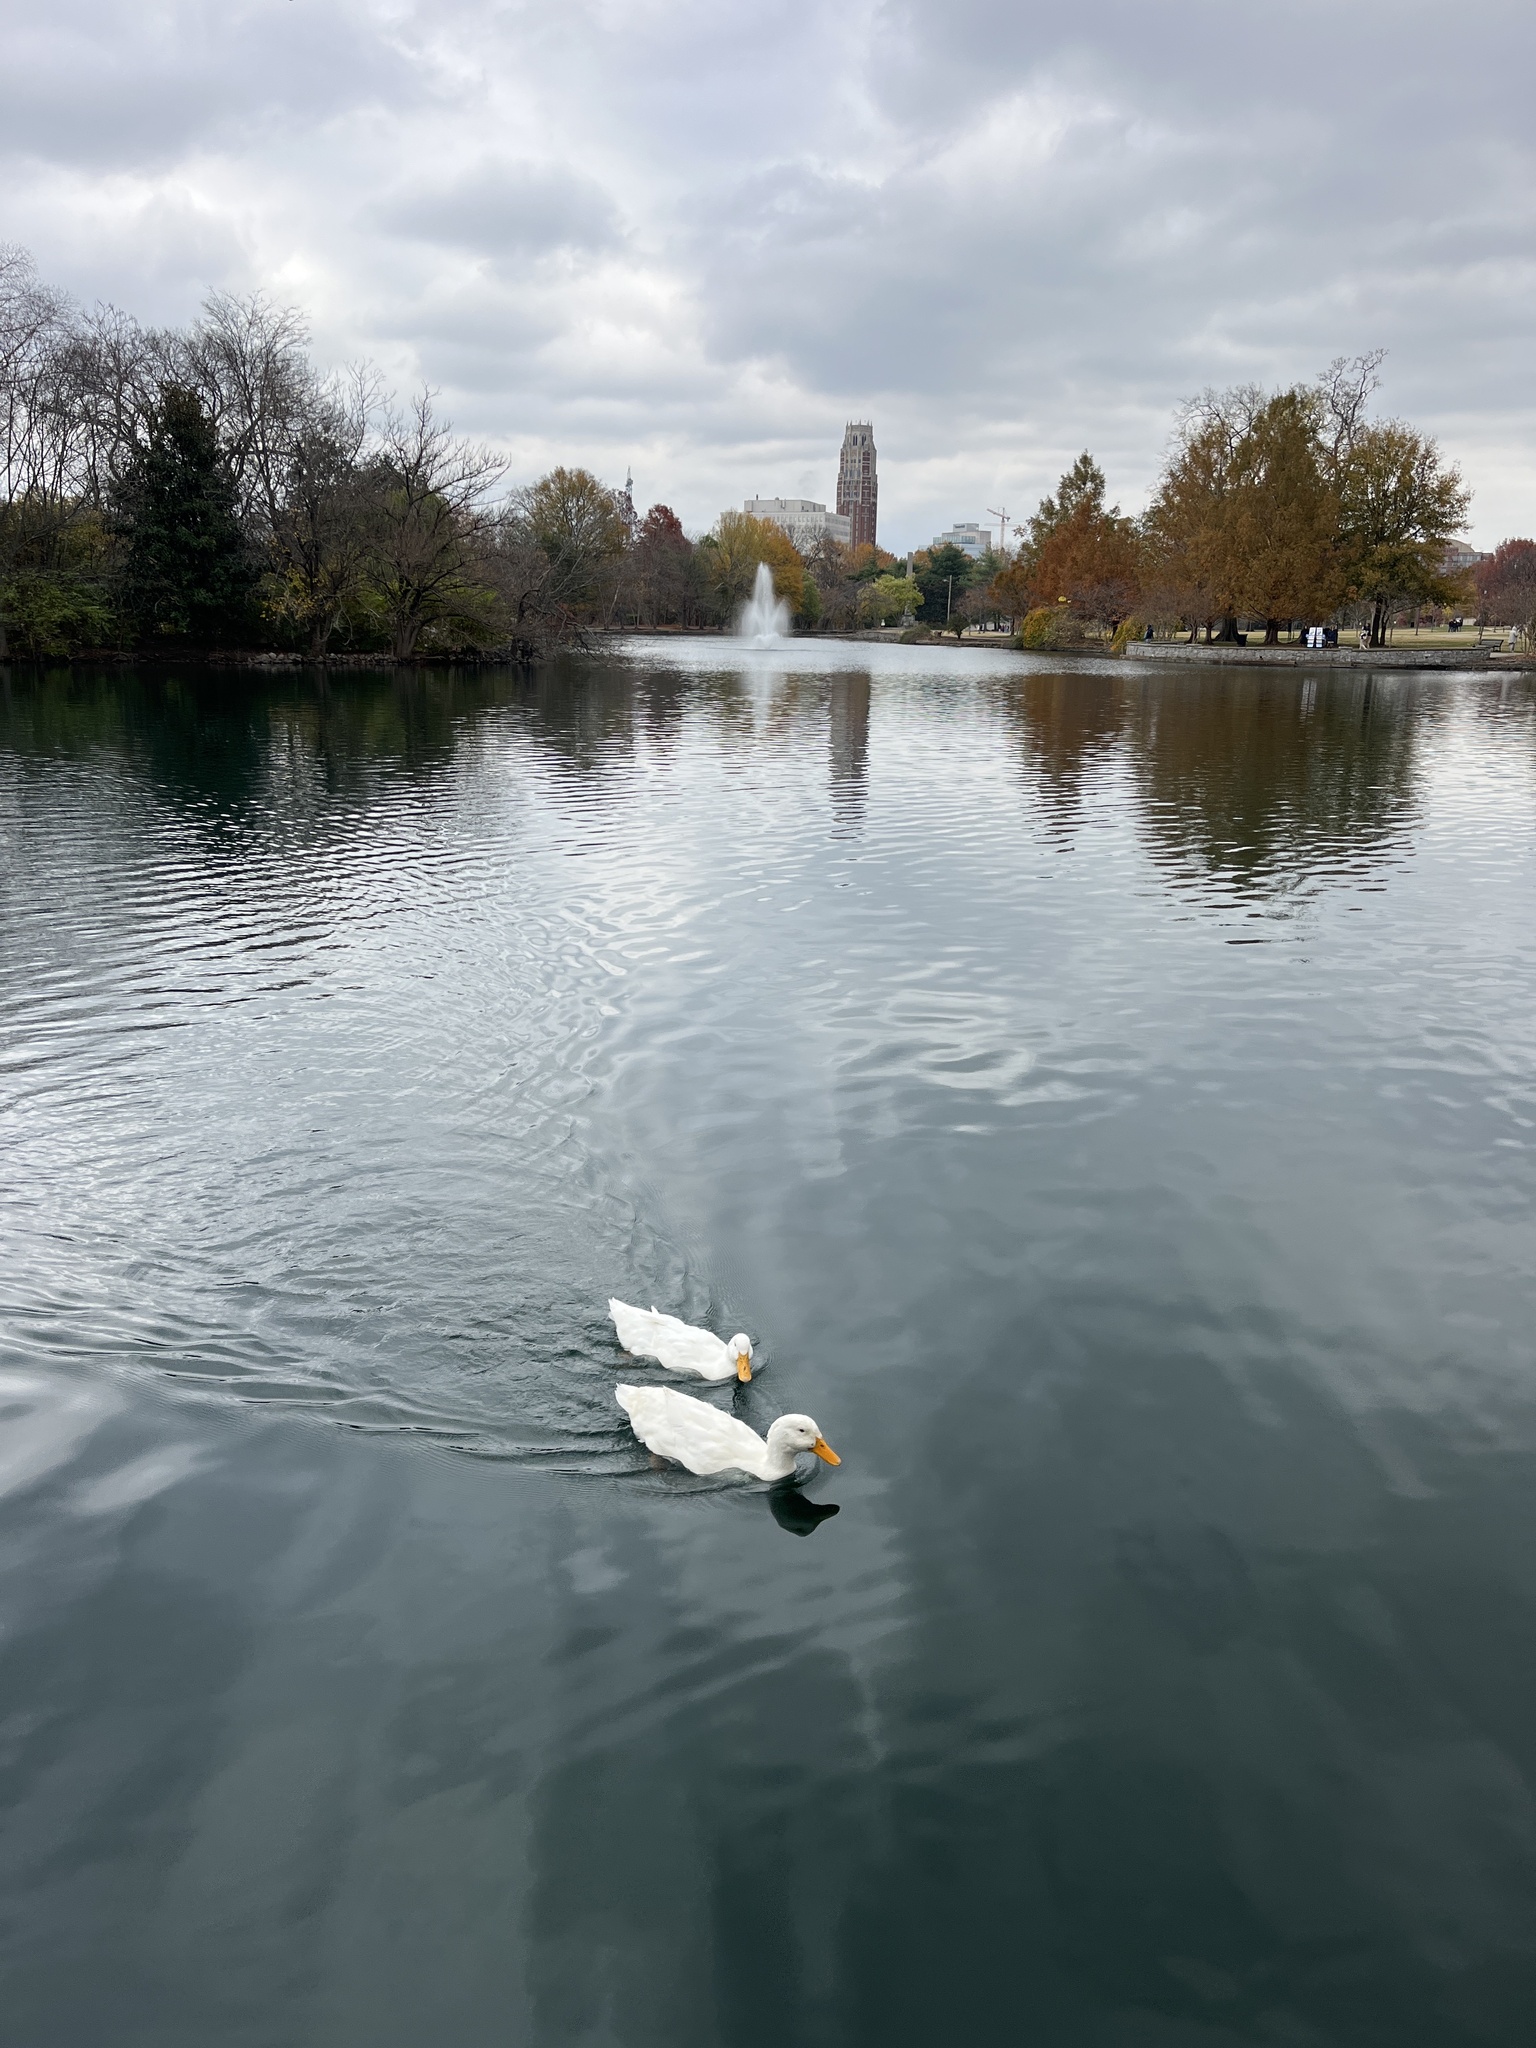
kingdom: Animalia
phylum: Chordata
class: Aves
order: Anseriformes
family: Anatidae
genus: Anas
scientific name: Anas platyrhynchos
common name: Mallard
